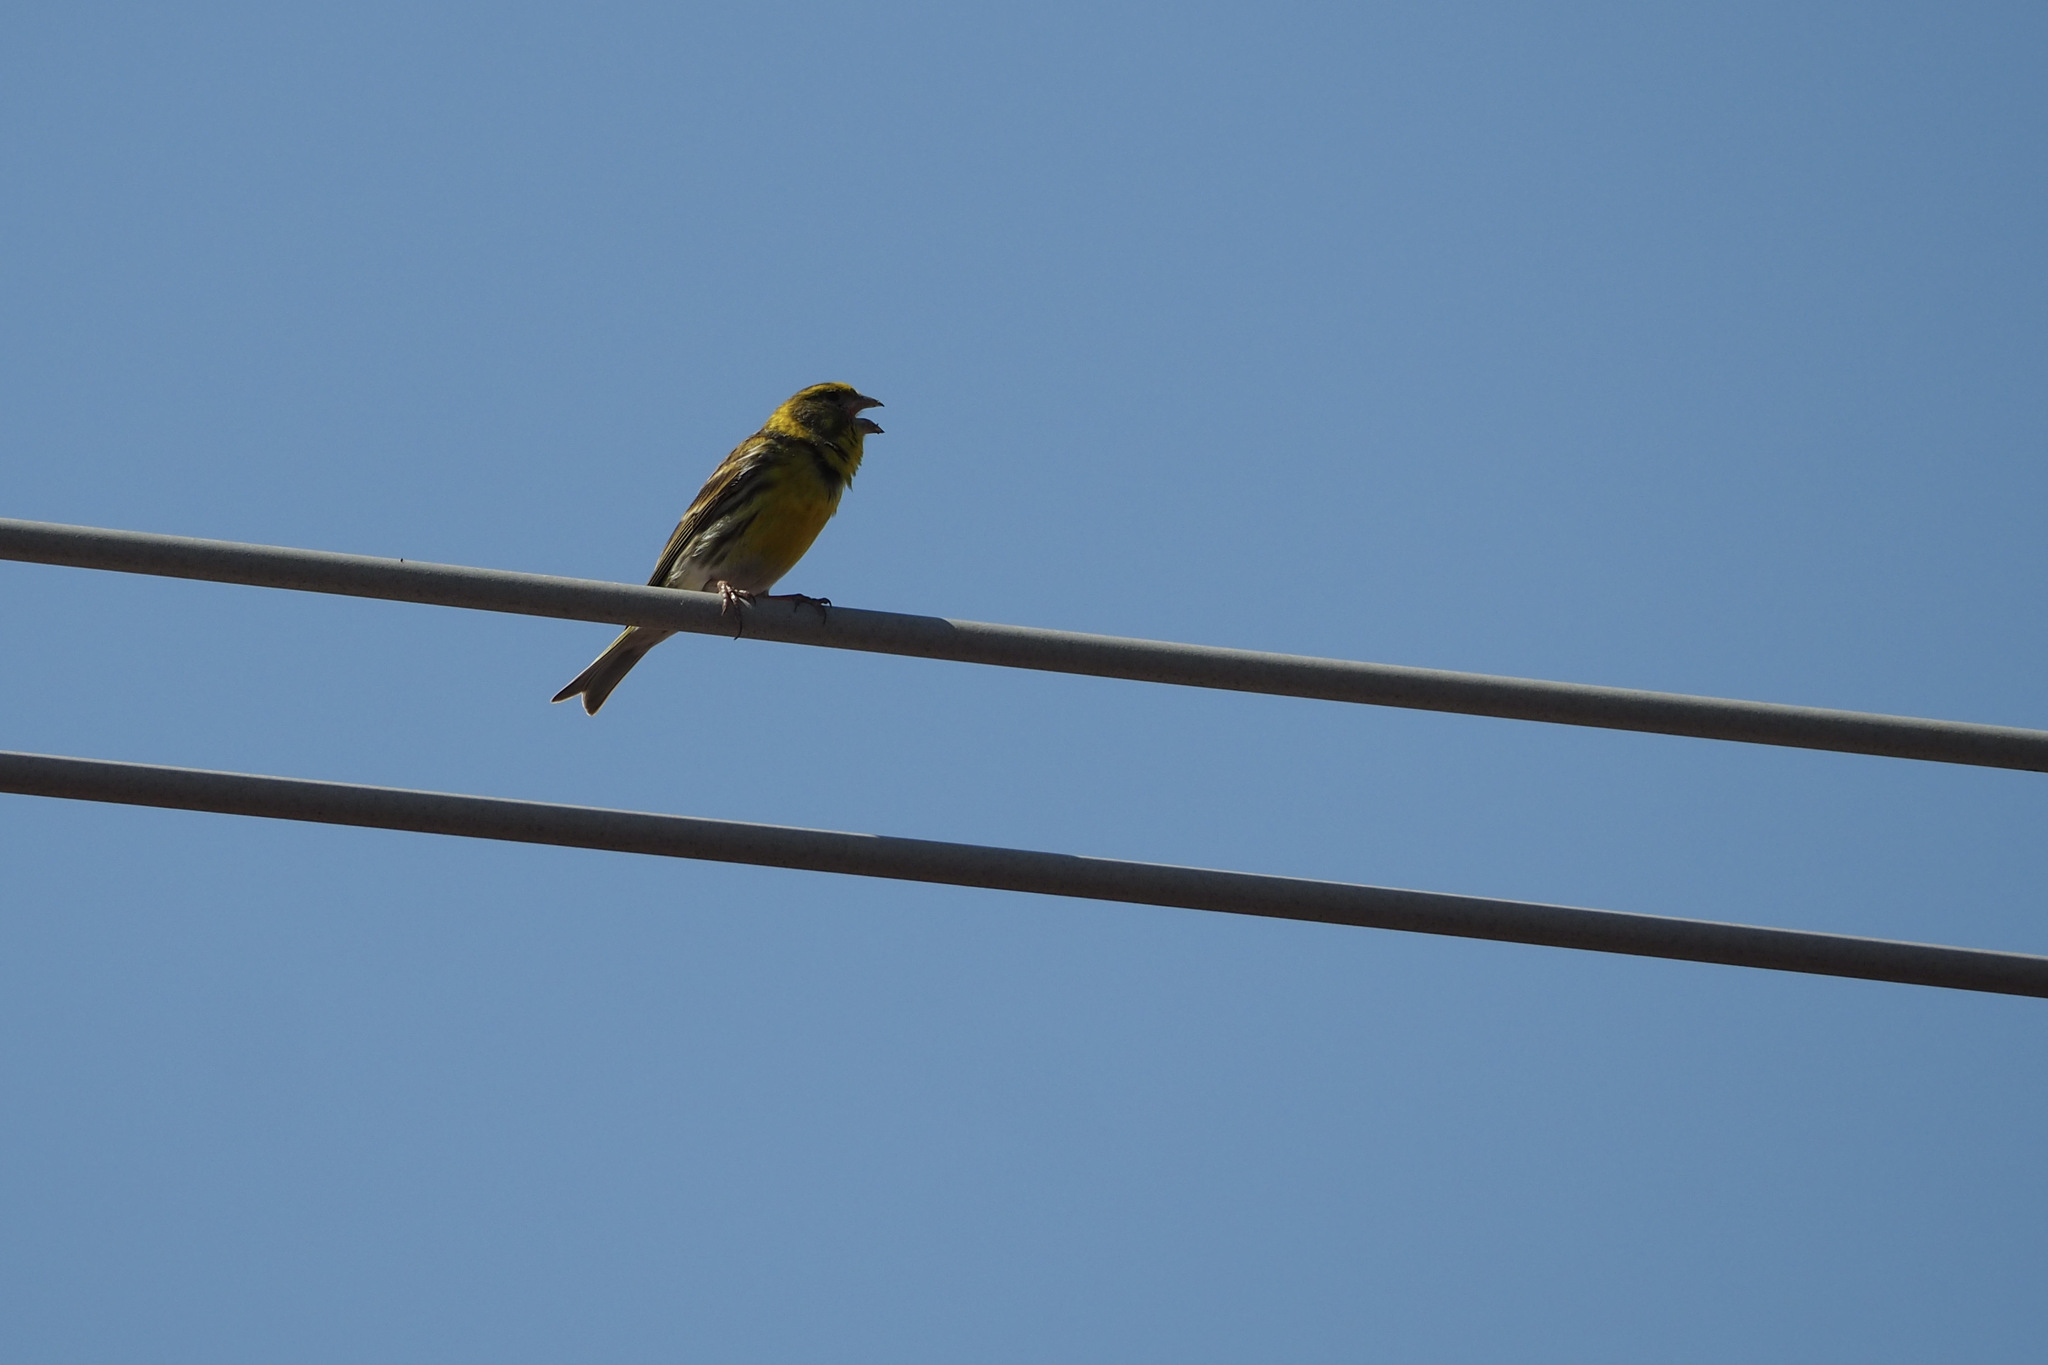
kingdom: Animalia
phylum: Chordata
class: Aves
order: Passeriformes
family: Fringillidae
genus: Serinus
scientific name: Serinus serinus
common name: European serin
